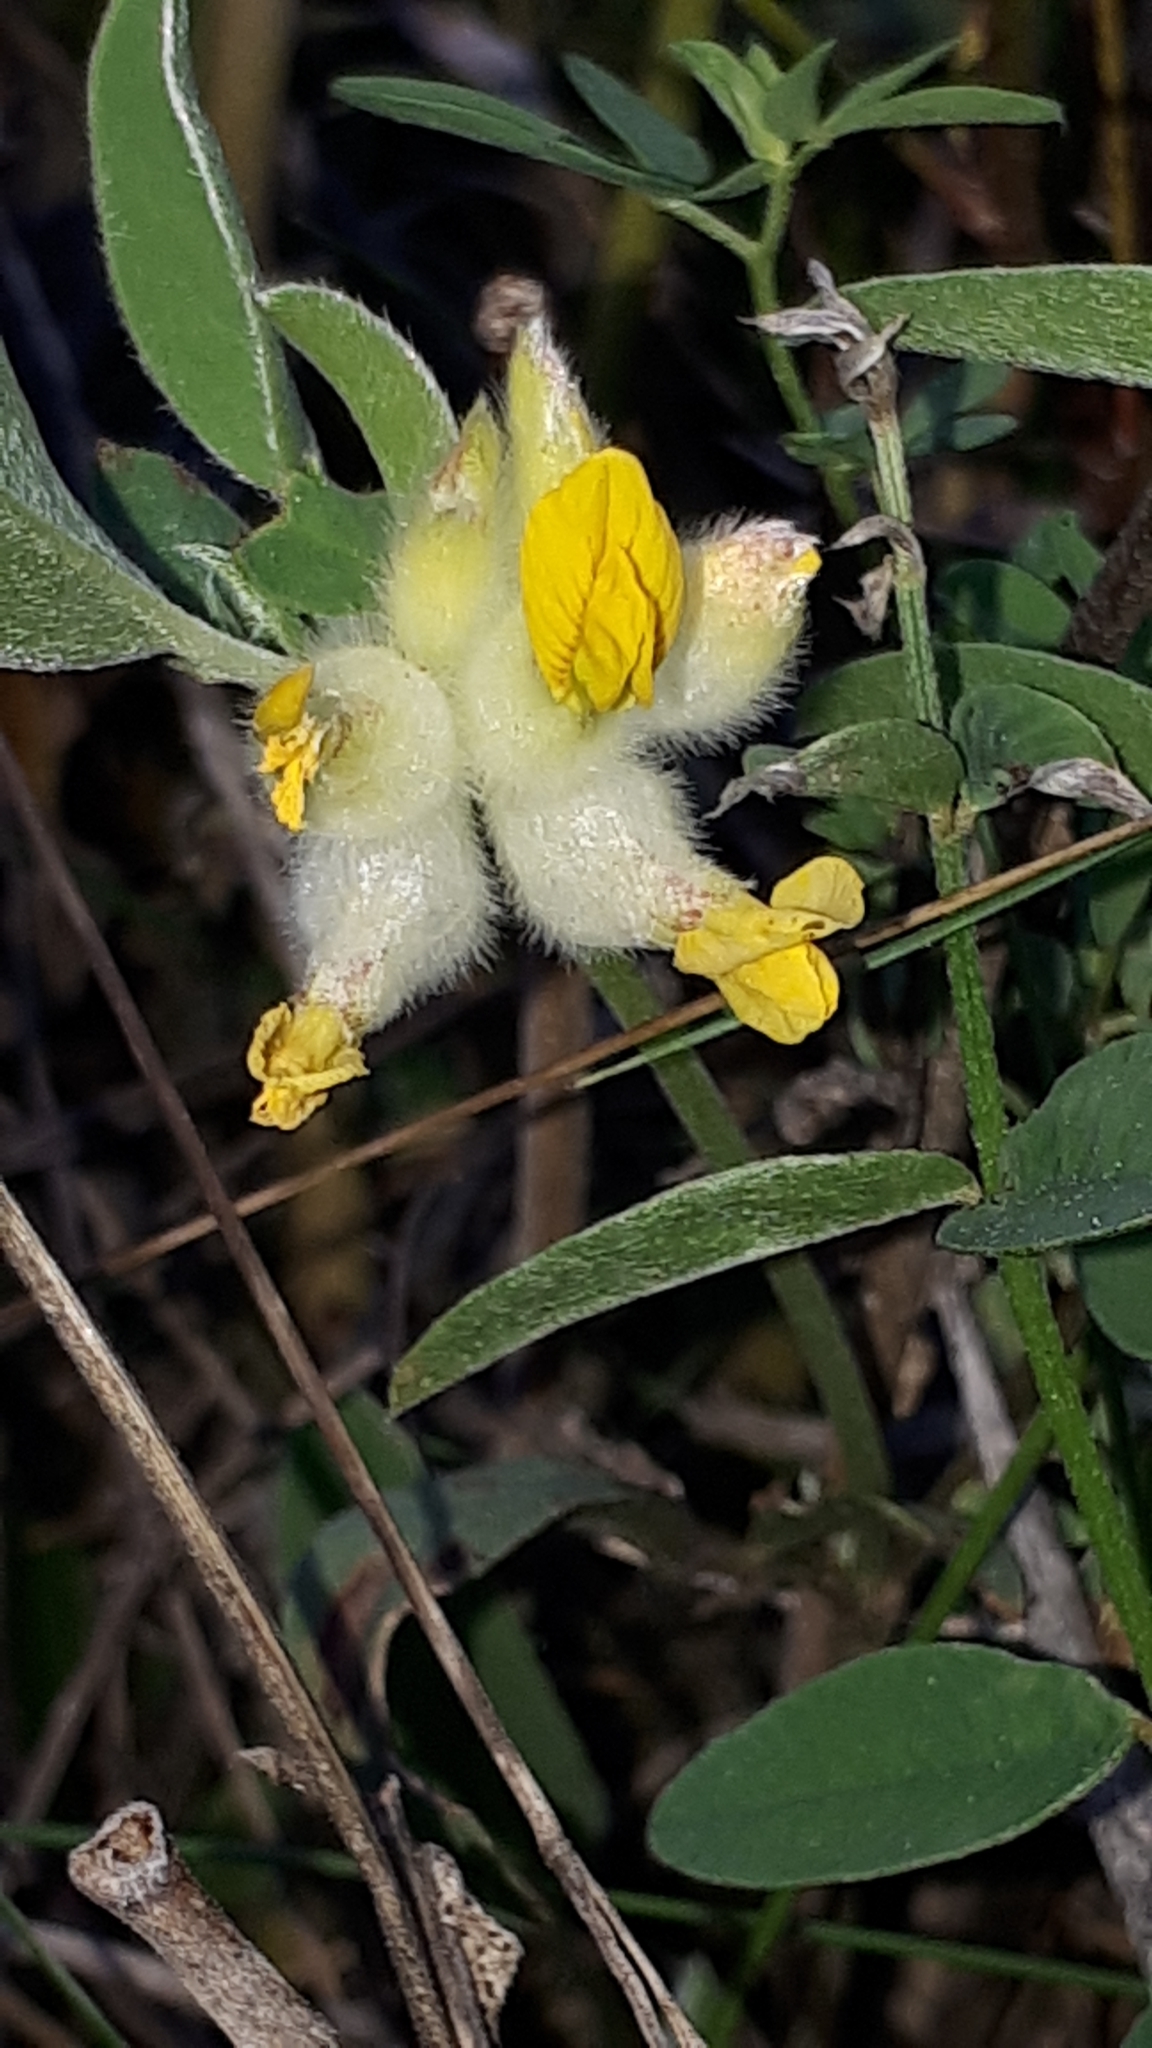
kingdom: Plantae
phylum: Tracheophyta
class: Magnoliopsida
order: Fabales
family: Fabaceae
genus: Anthyllis
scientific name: Anthyllis vulneraria
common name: Kidney vetch
